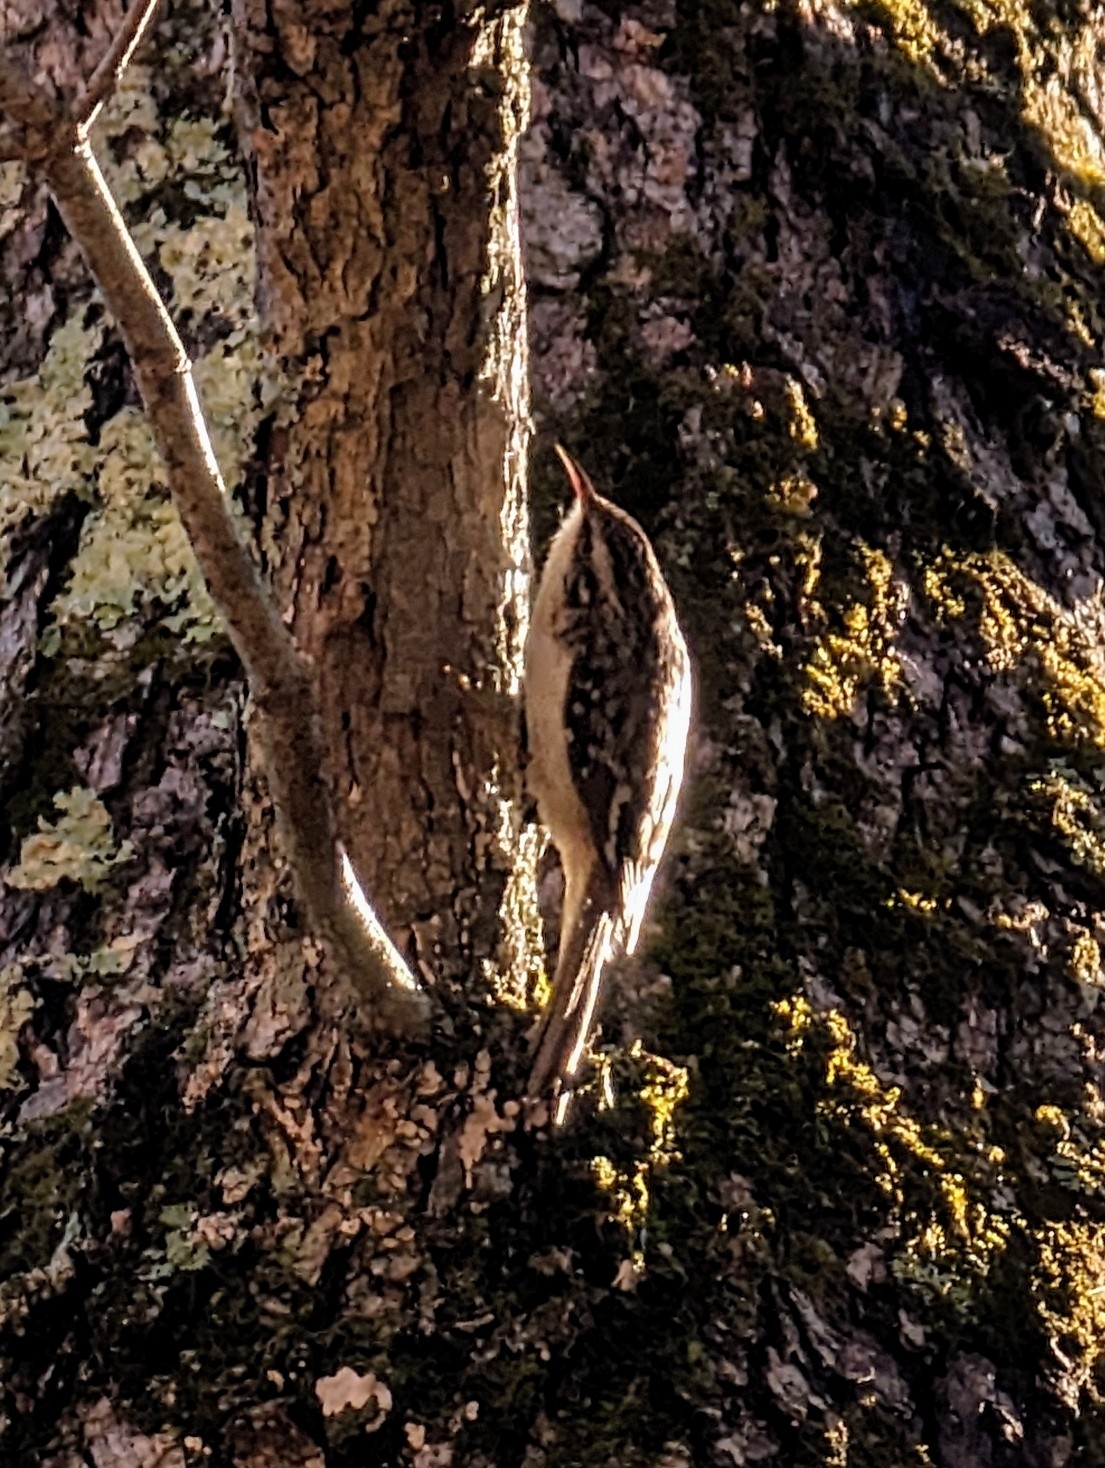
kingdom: Animalia
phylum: Chordata
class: Aves
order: Passeriformes
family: Certhiidae
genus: Certhia
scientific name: Certhia americana
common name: Brown creeper
